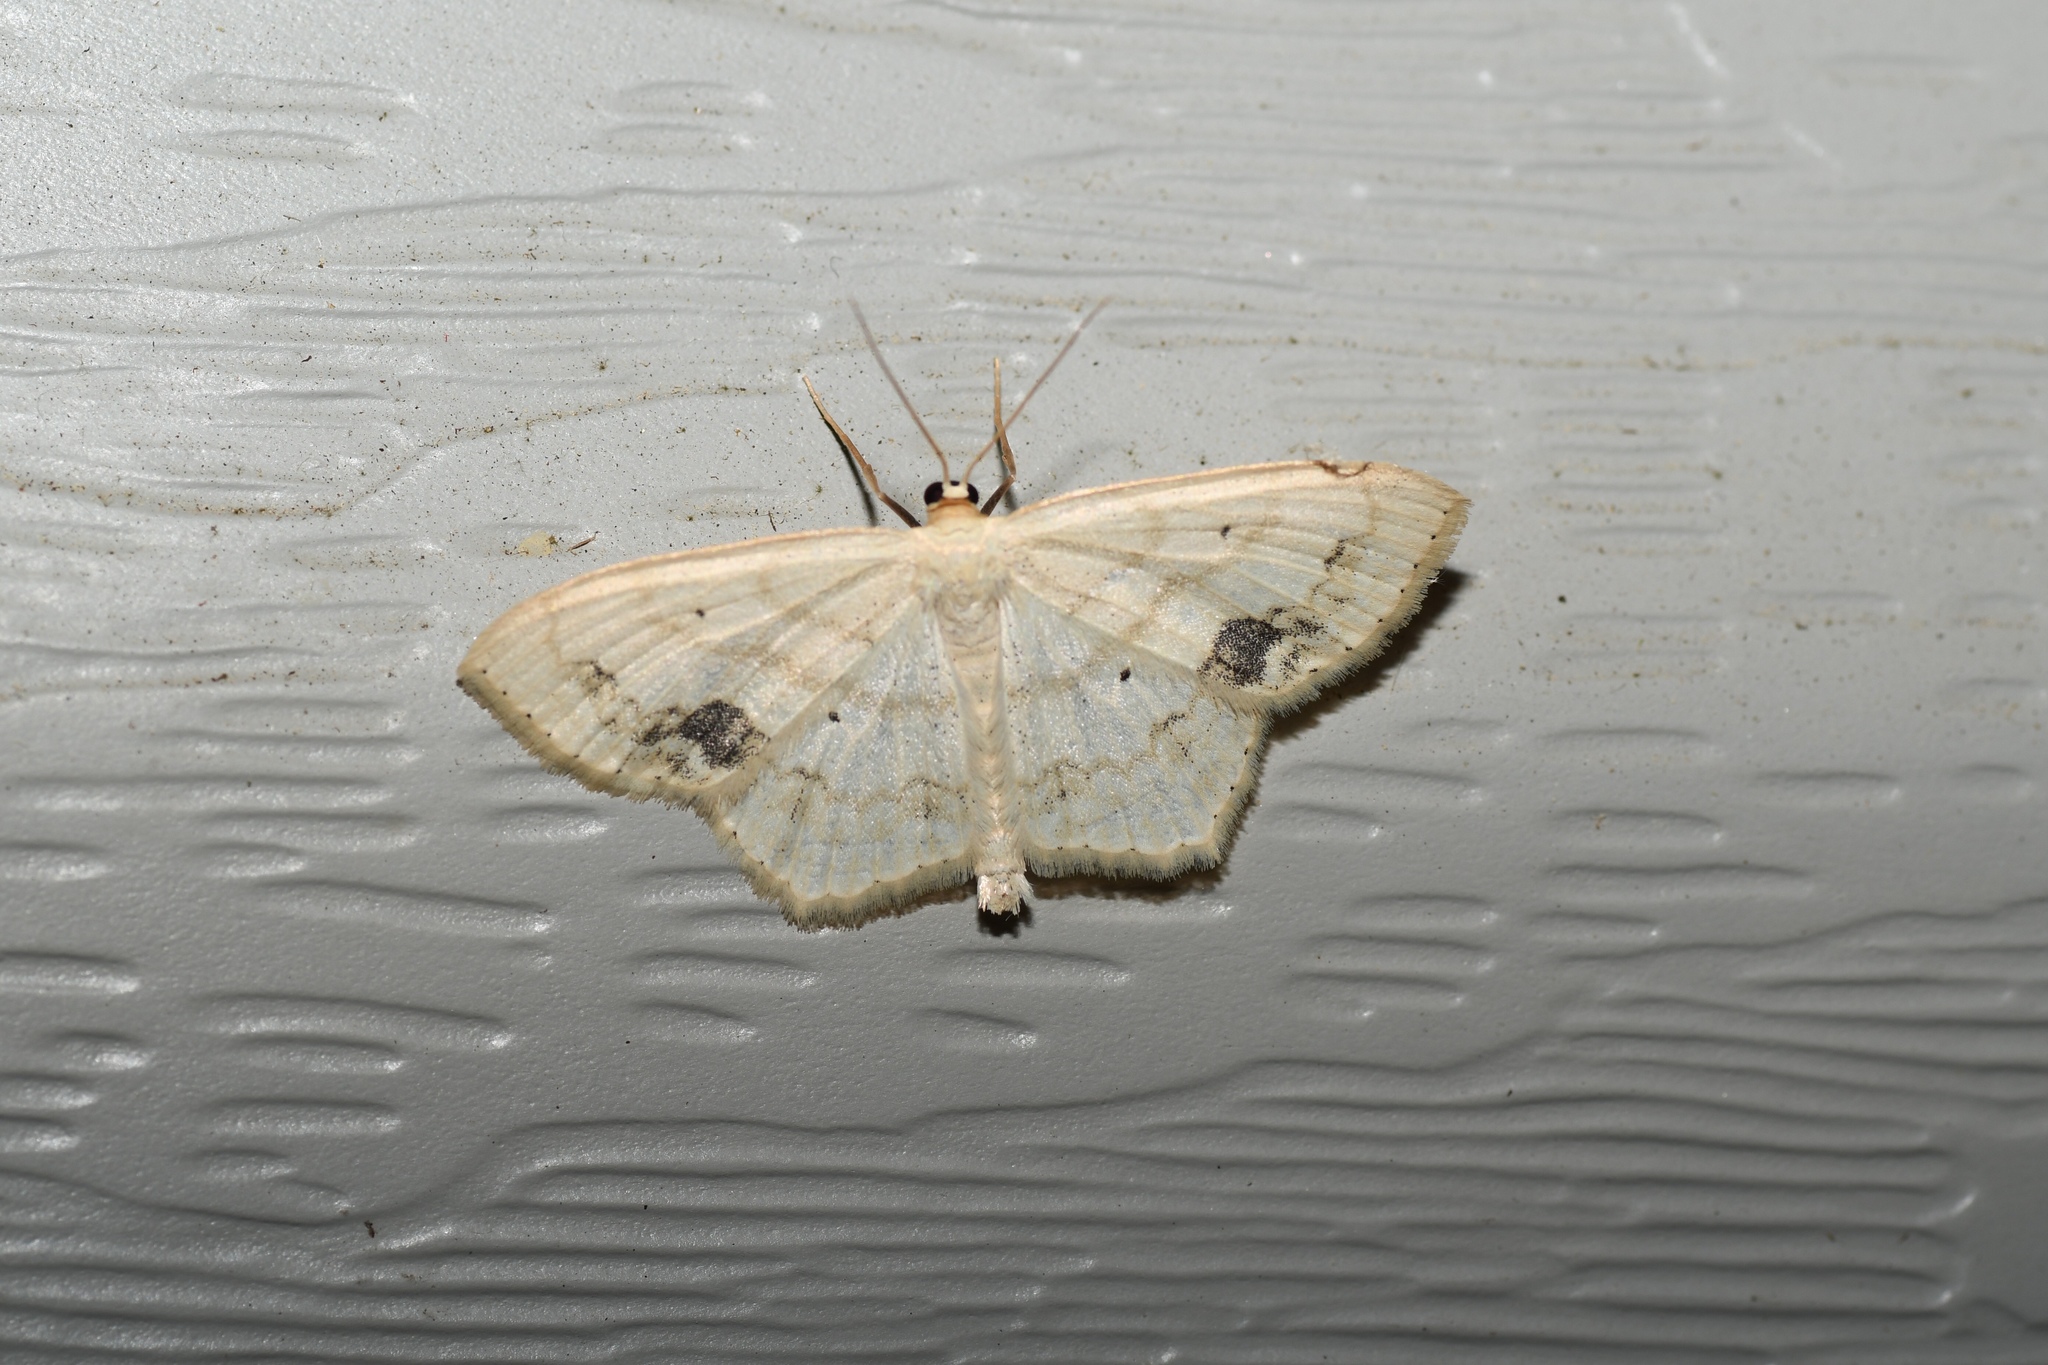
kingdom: Animalia
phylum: Arthropoda
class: Insecta
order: Lepidoptera
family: Geometridae
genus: Scopula
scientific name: Scopula limboundata
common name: Large lace border
